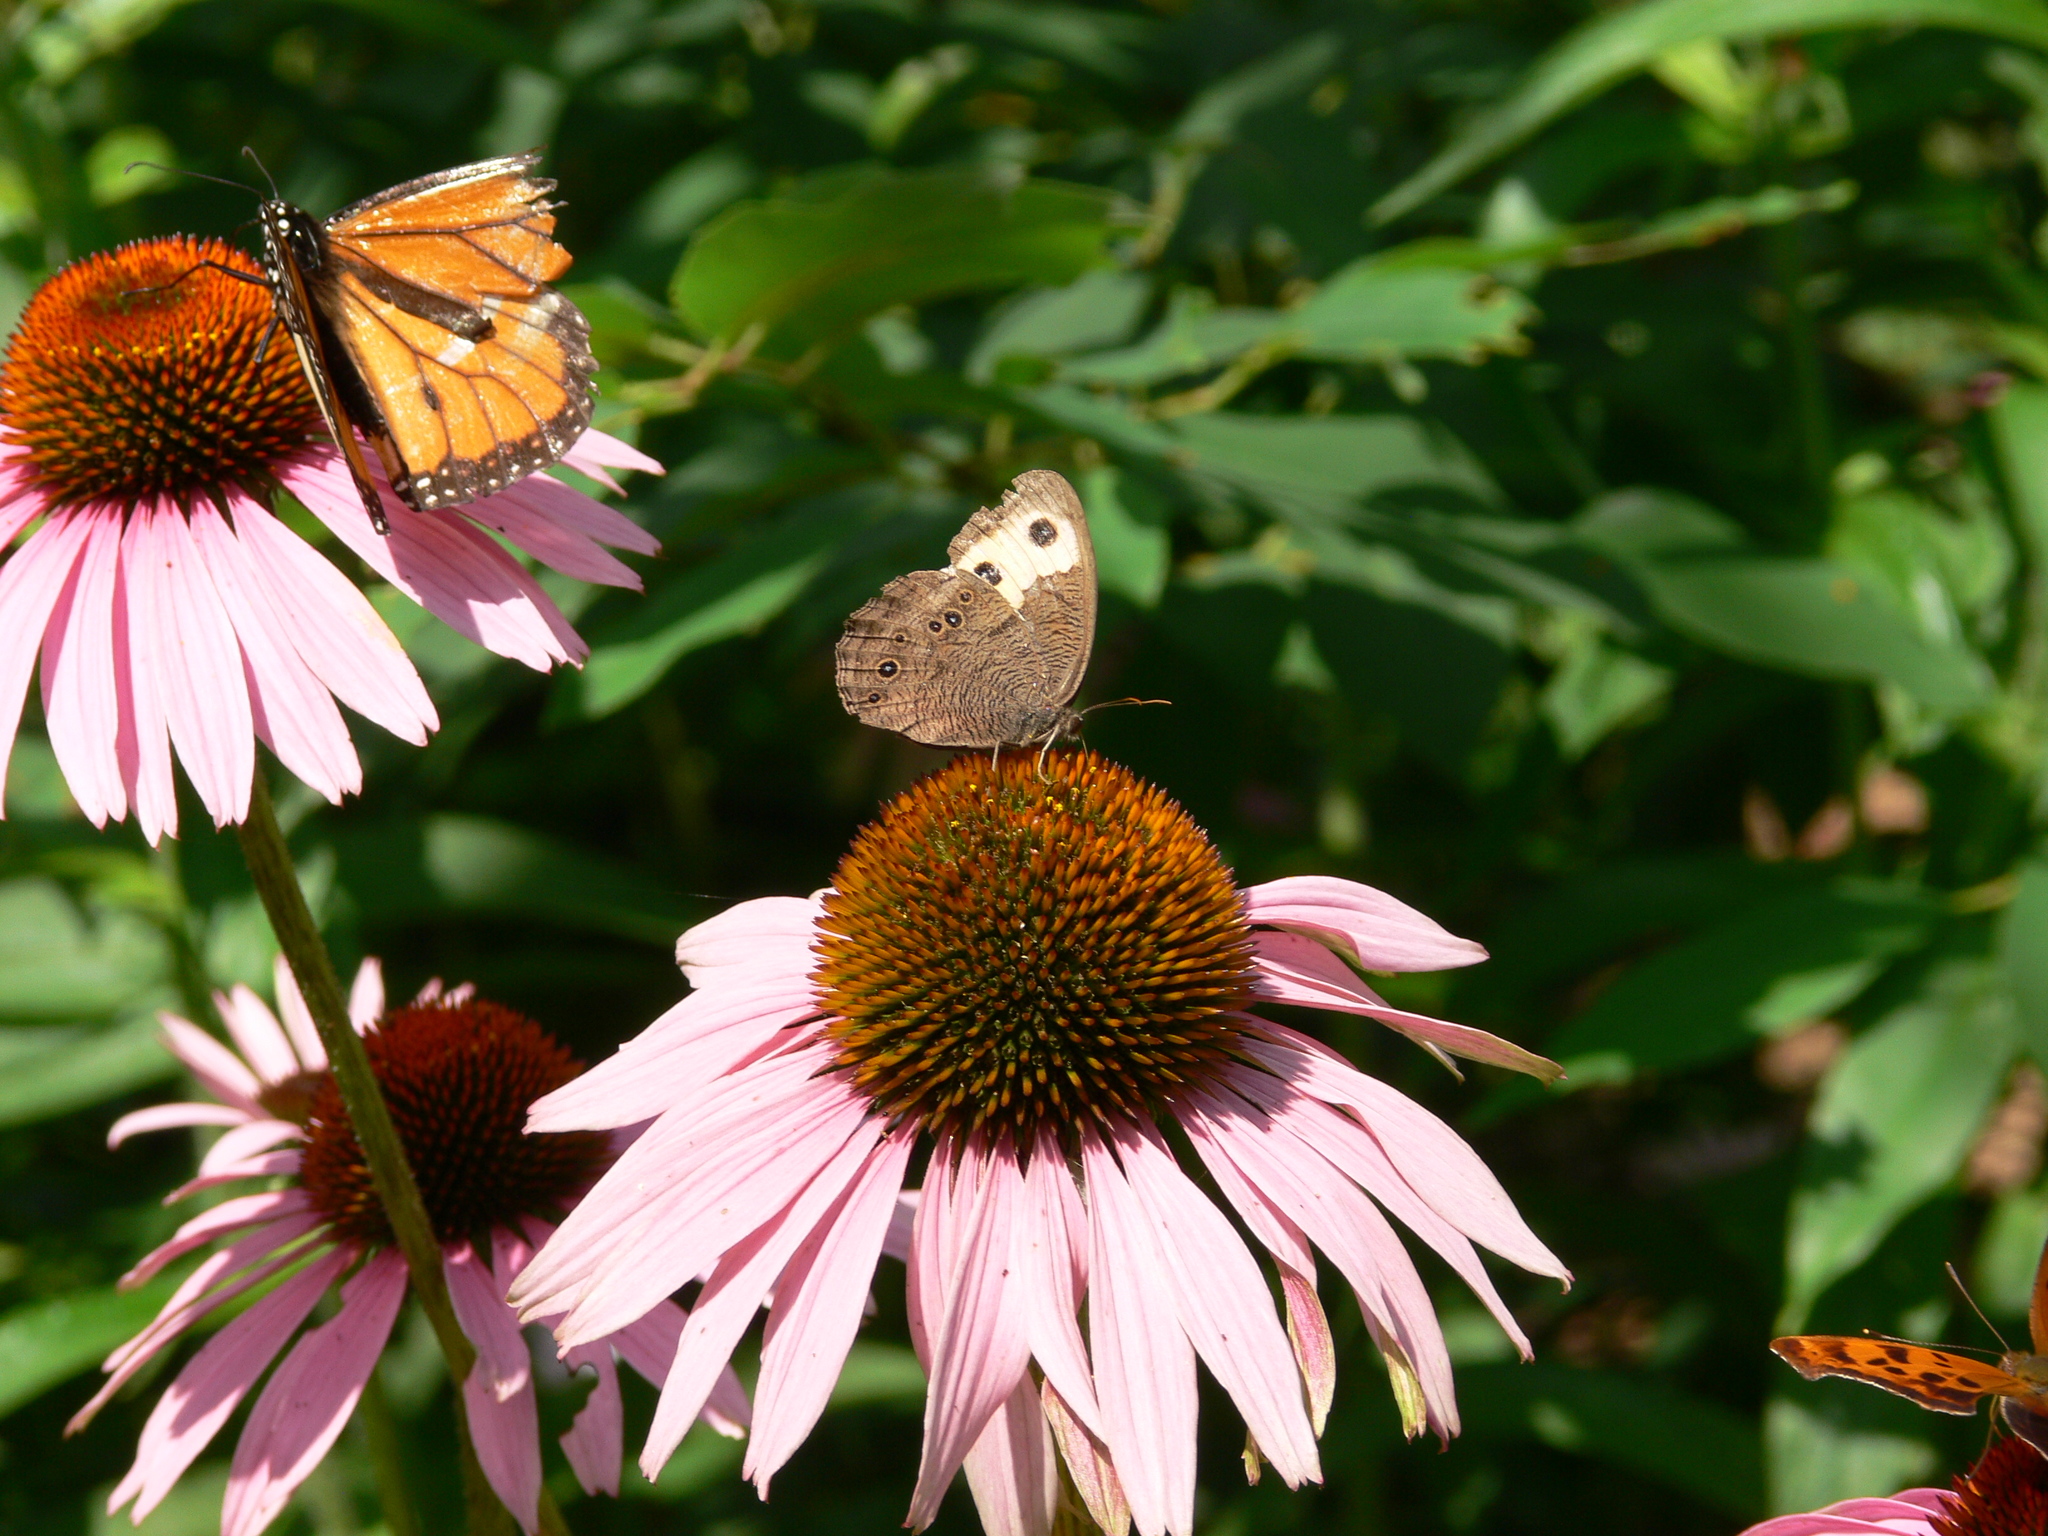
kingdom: Animalia
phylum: Arthropoda
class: Insecta
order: Lepidoptera
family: Nymphalidae
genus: Cercyonis
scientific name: Cercyonis pegala
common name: Common wood-nymph
